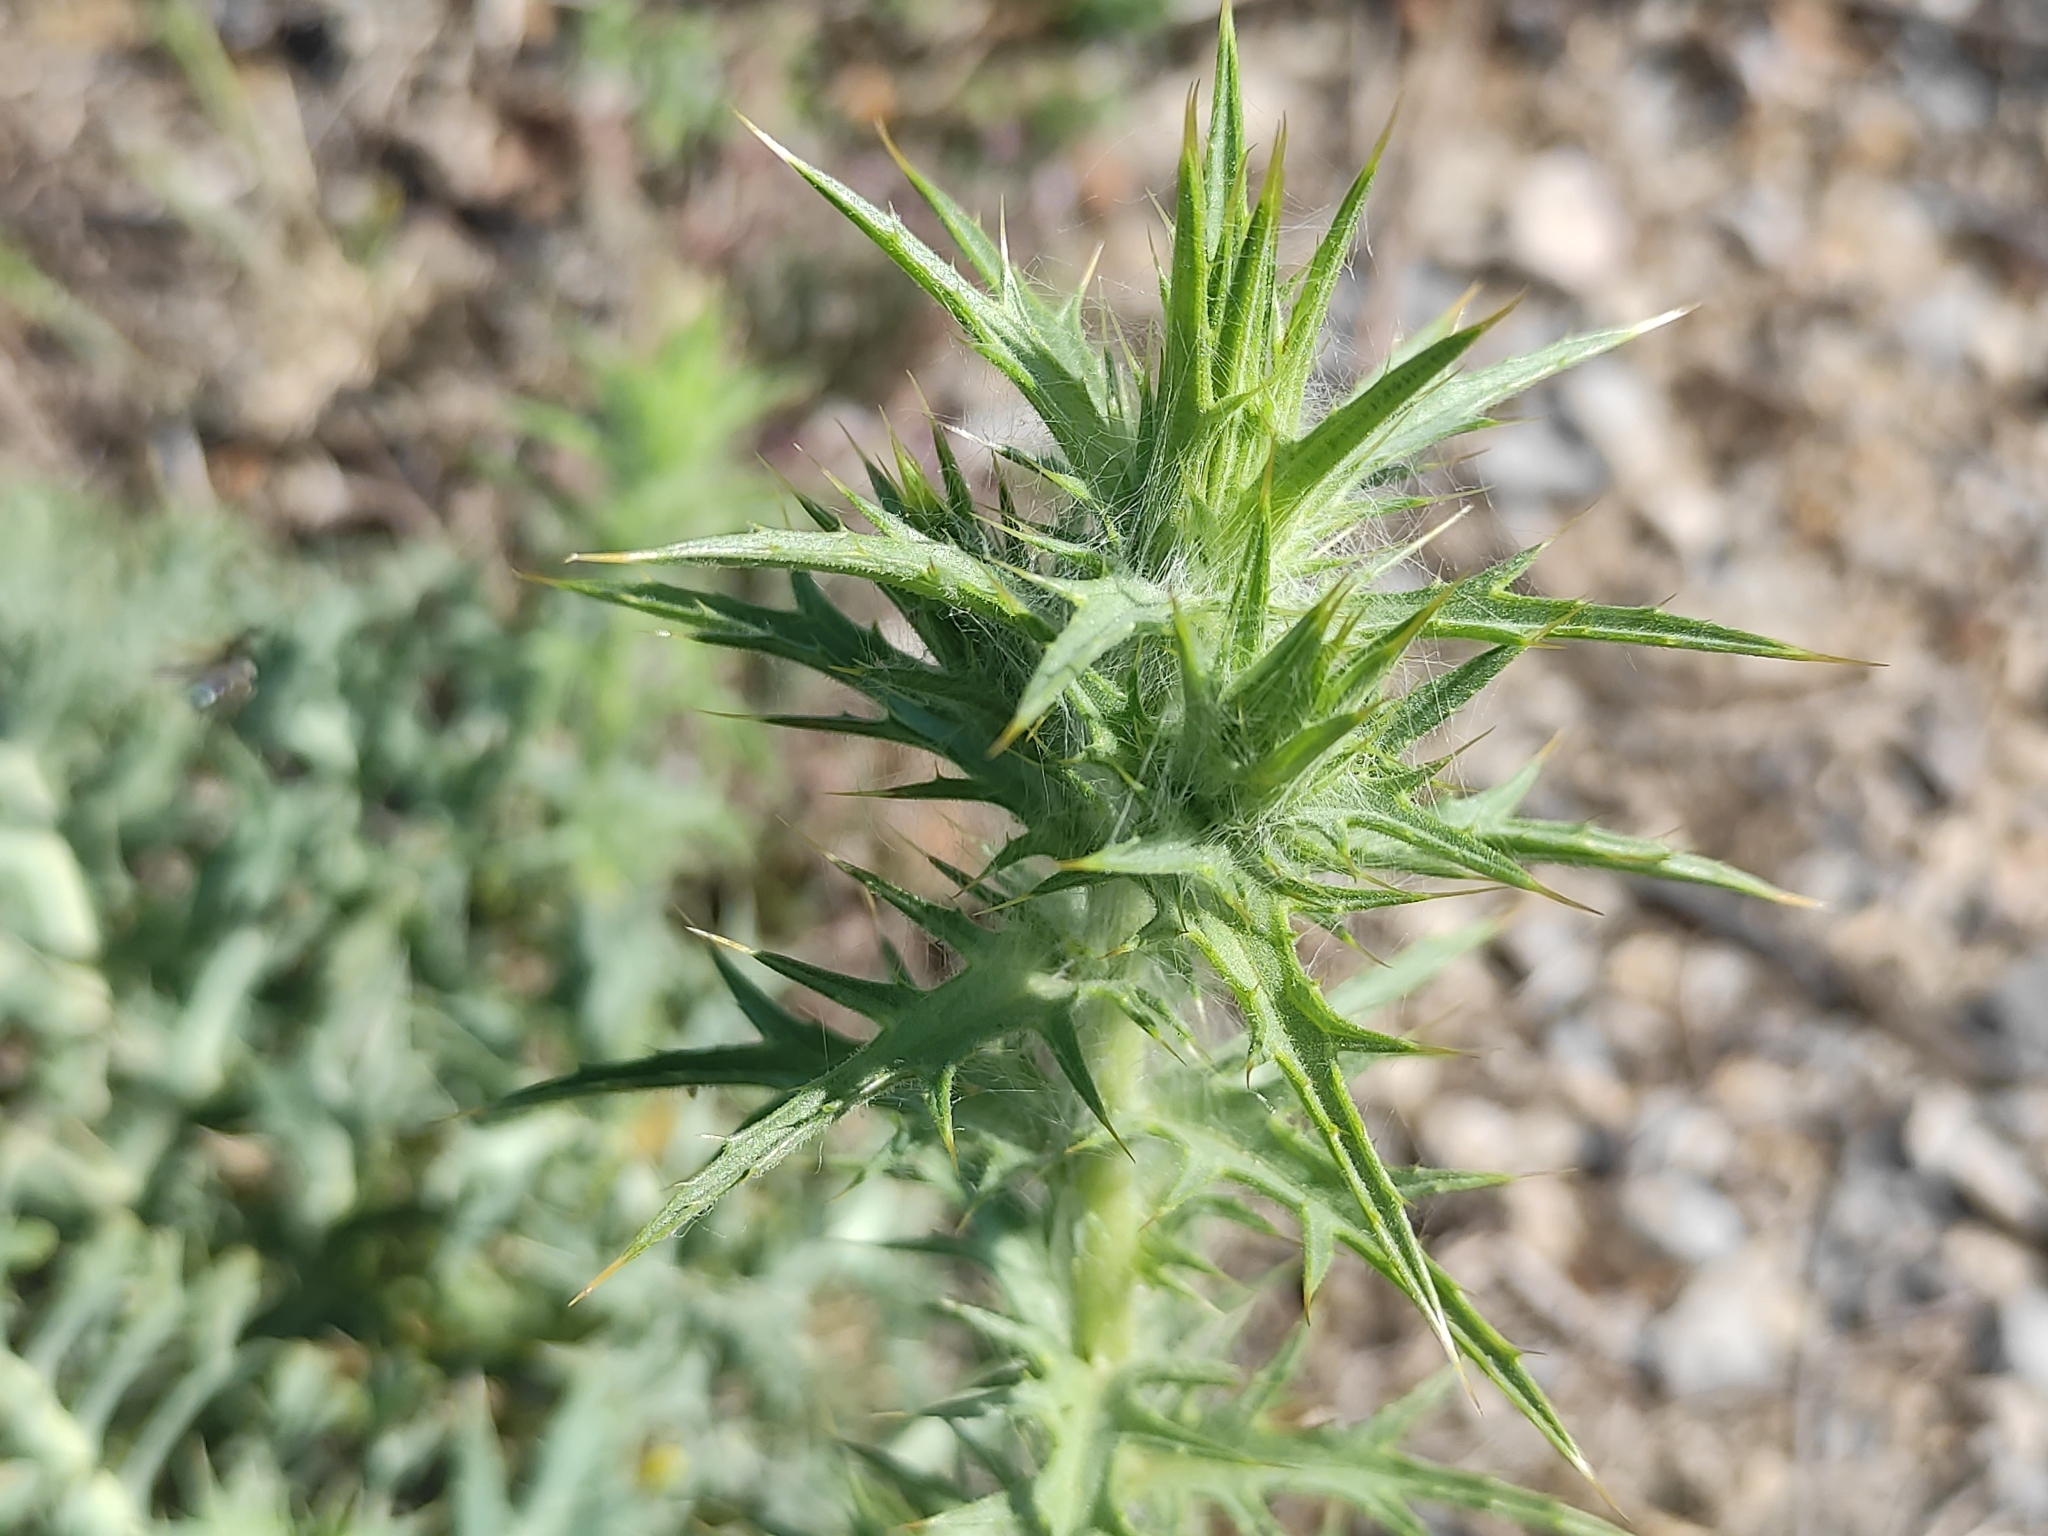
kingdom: Plantae
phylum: Tracheophyta
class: Magnoliopsida
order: Asterales
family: Asteraceae
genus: Carthamus
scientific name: Carthamus lanatus
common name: Downy safflower
